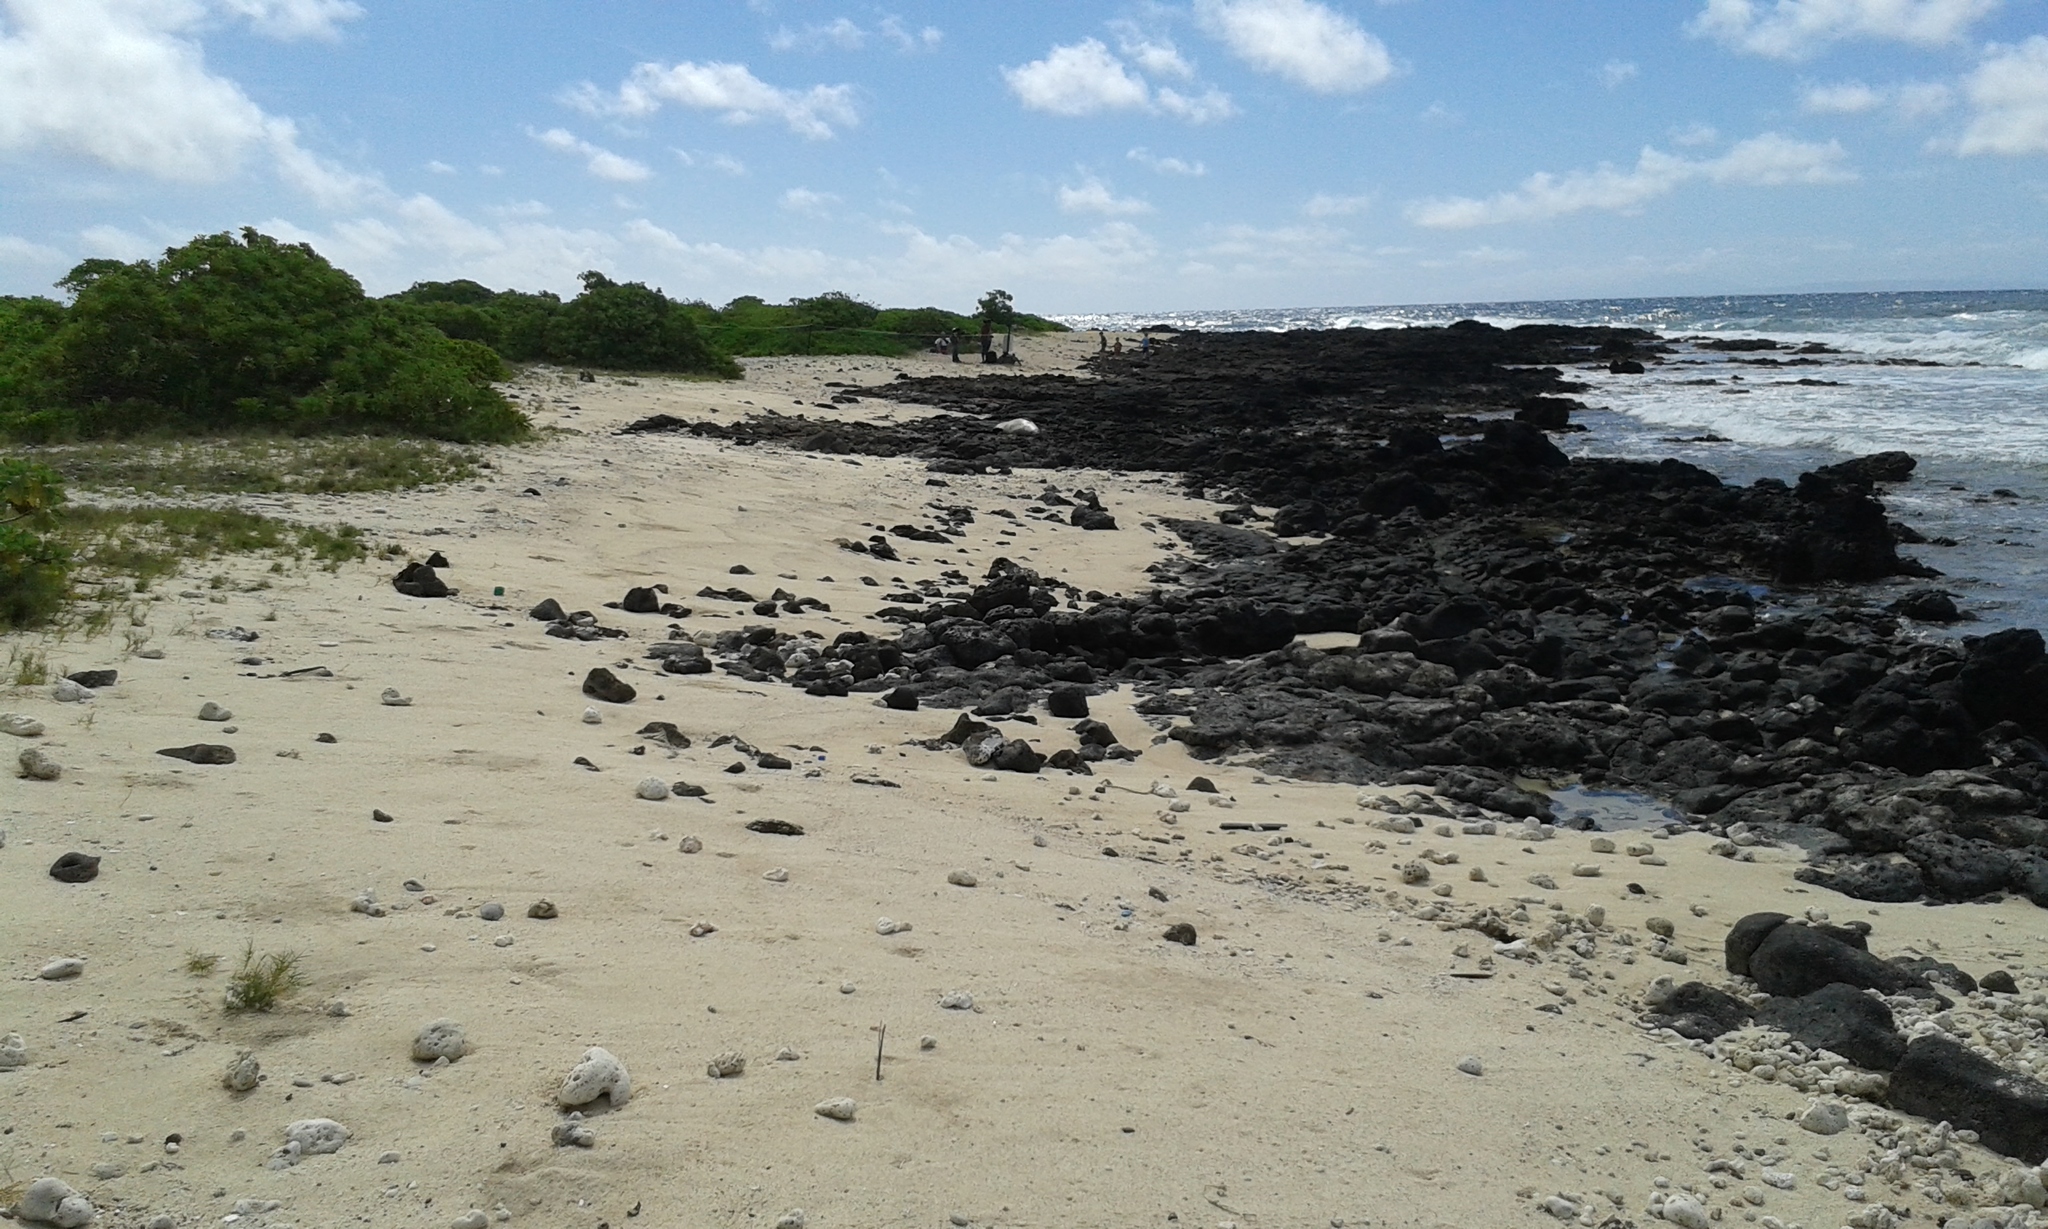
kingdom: Animalia
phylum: Chordata
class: Mammalia
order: Carnivora
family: Phocidae
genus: Neomonachus
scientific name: Neomonachus schauinslandi
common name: Hawaiian monk seal
